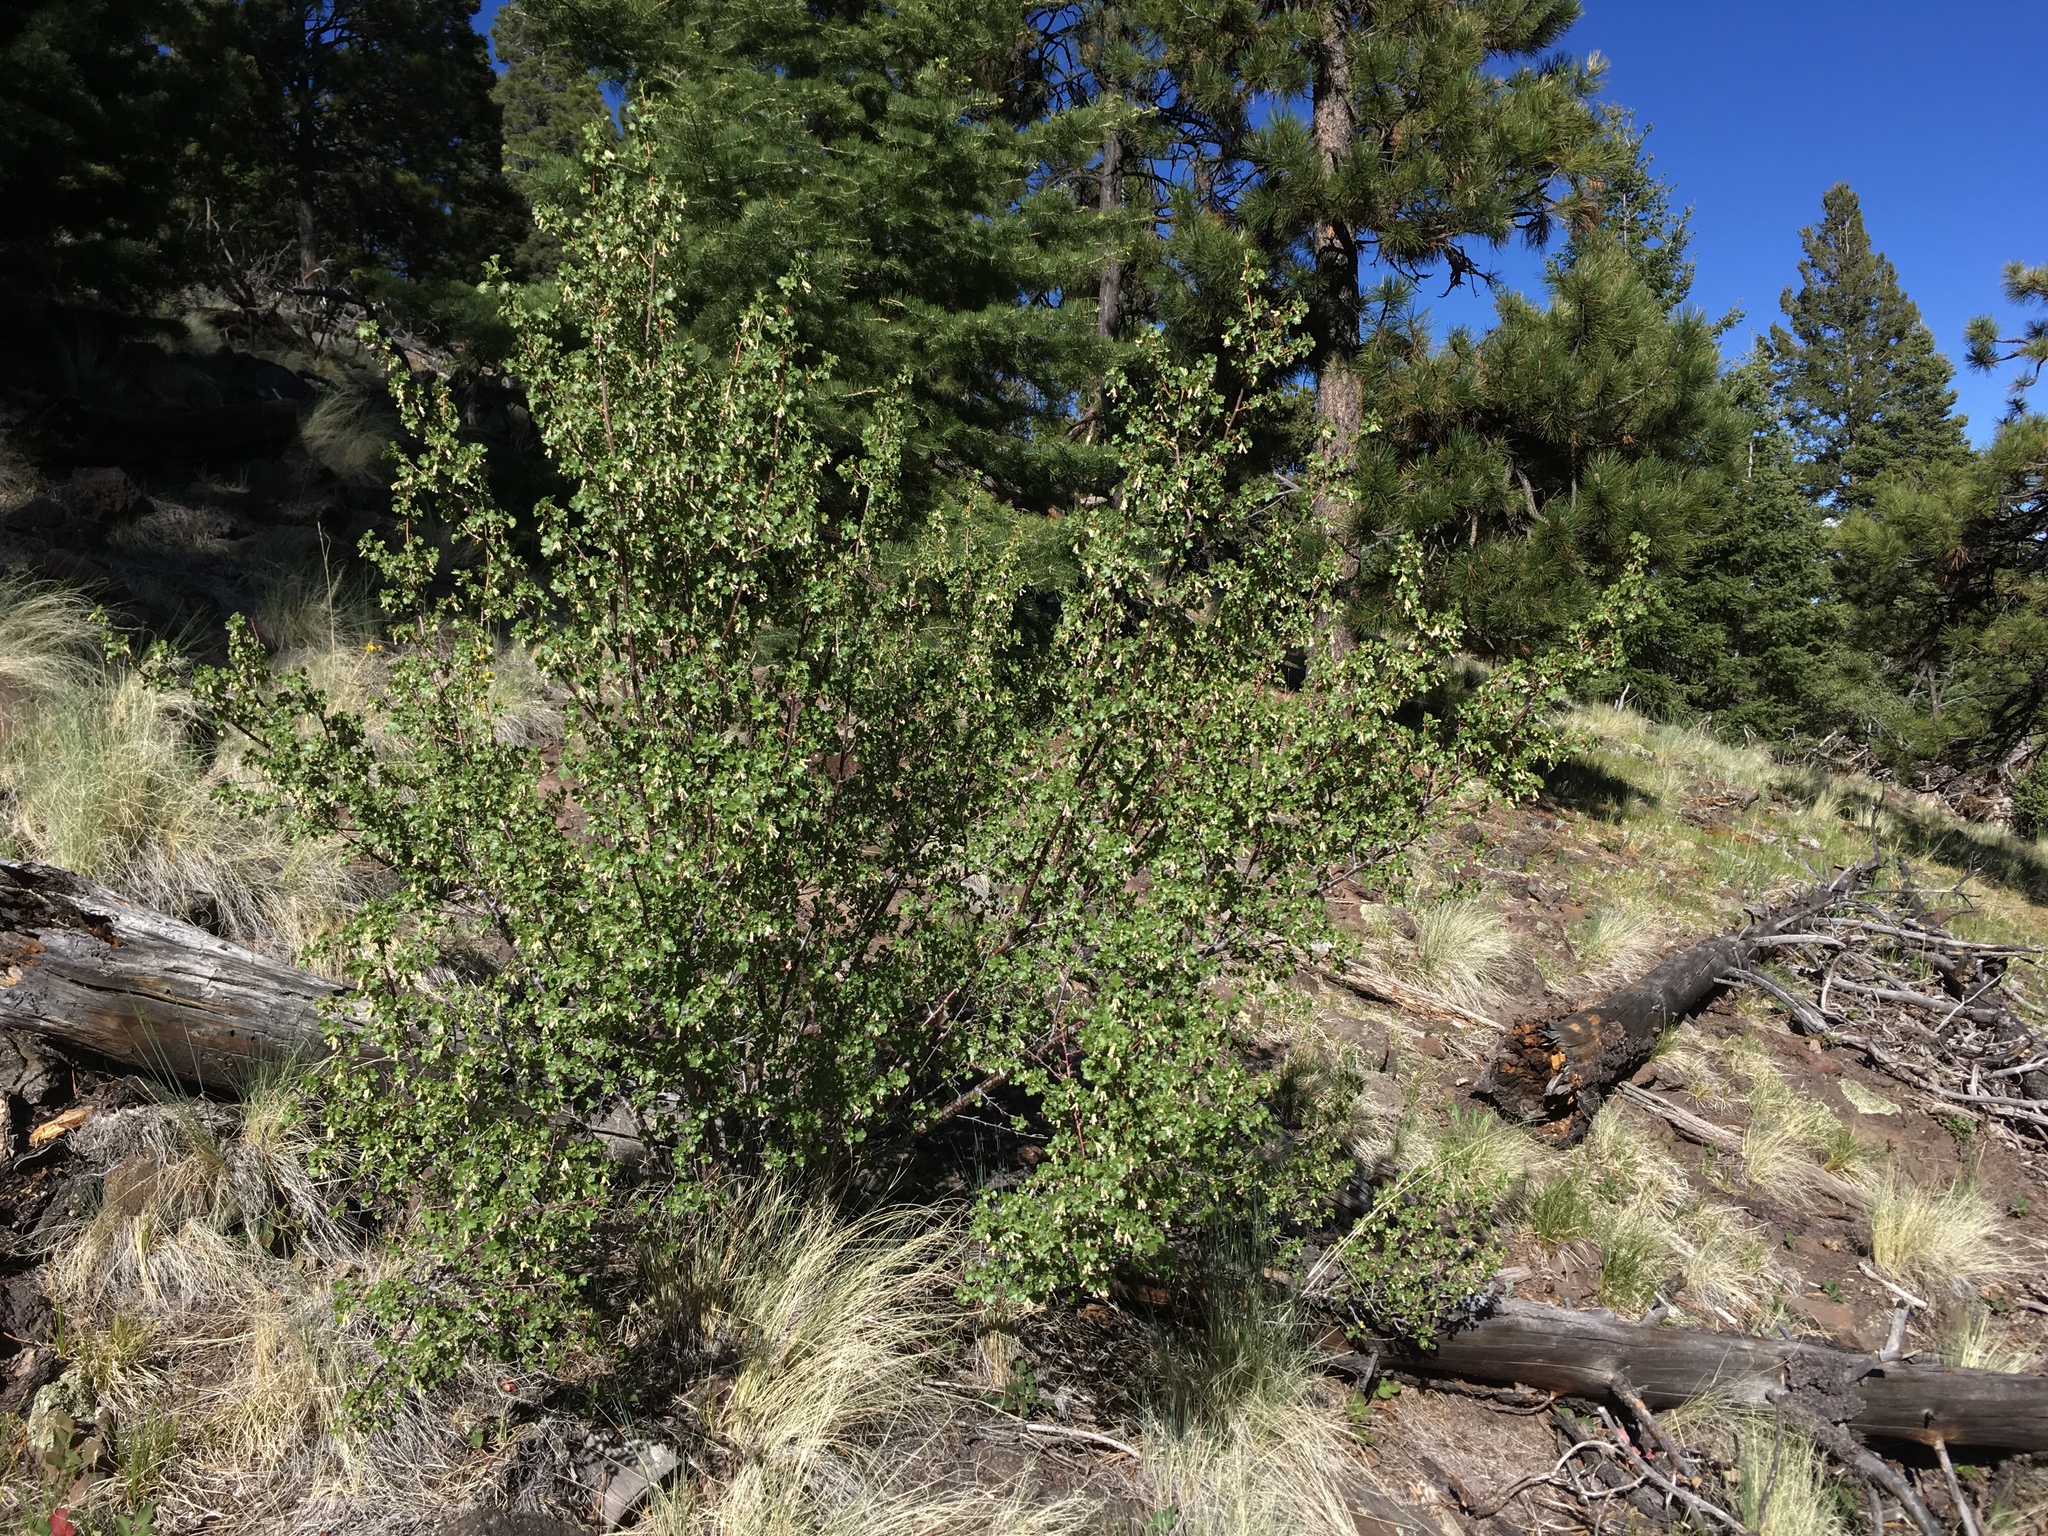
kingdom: Plantae
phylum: Tracheophyta
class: Magnoliopsida
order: Saxifragales
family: Grossulariaceae
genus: Ribes
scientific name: Ribes cereum
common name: Wax currant
